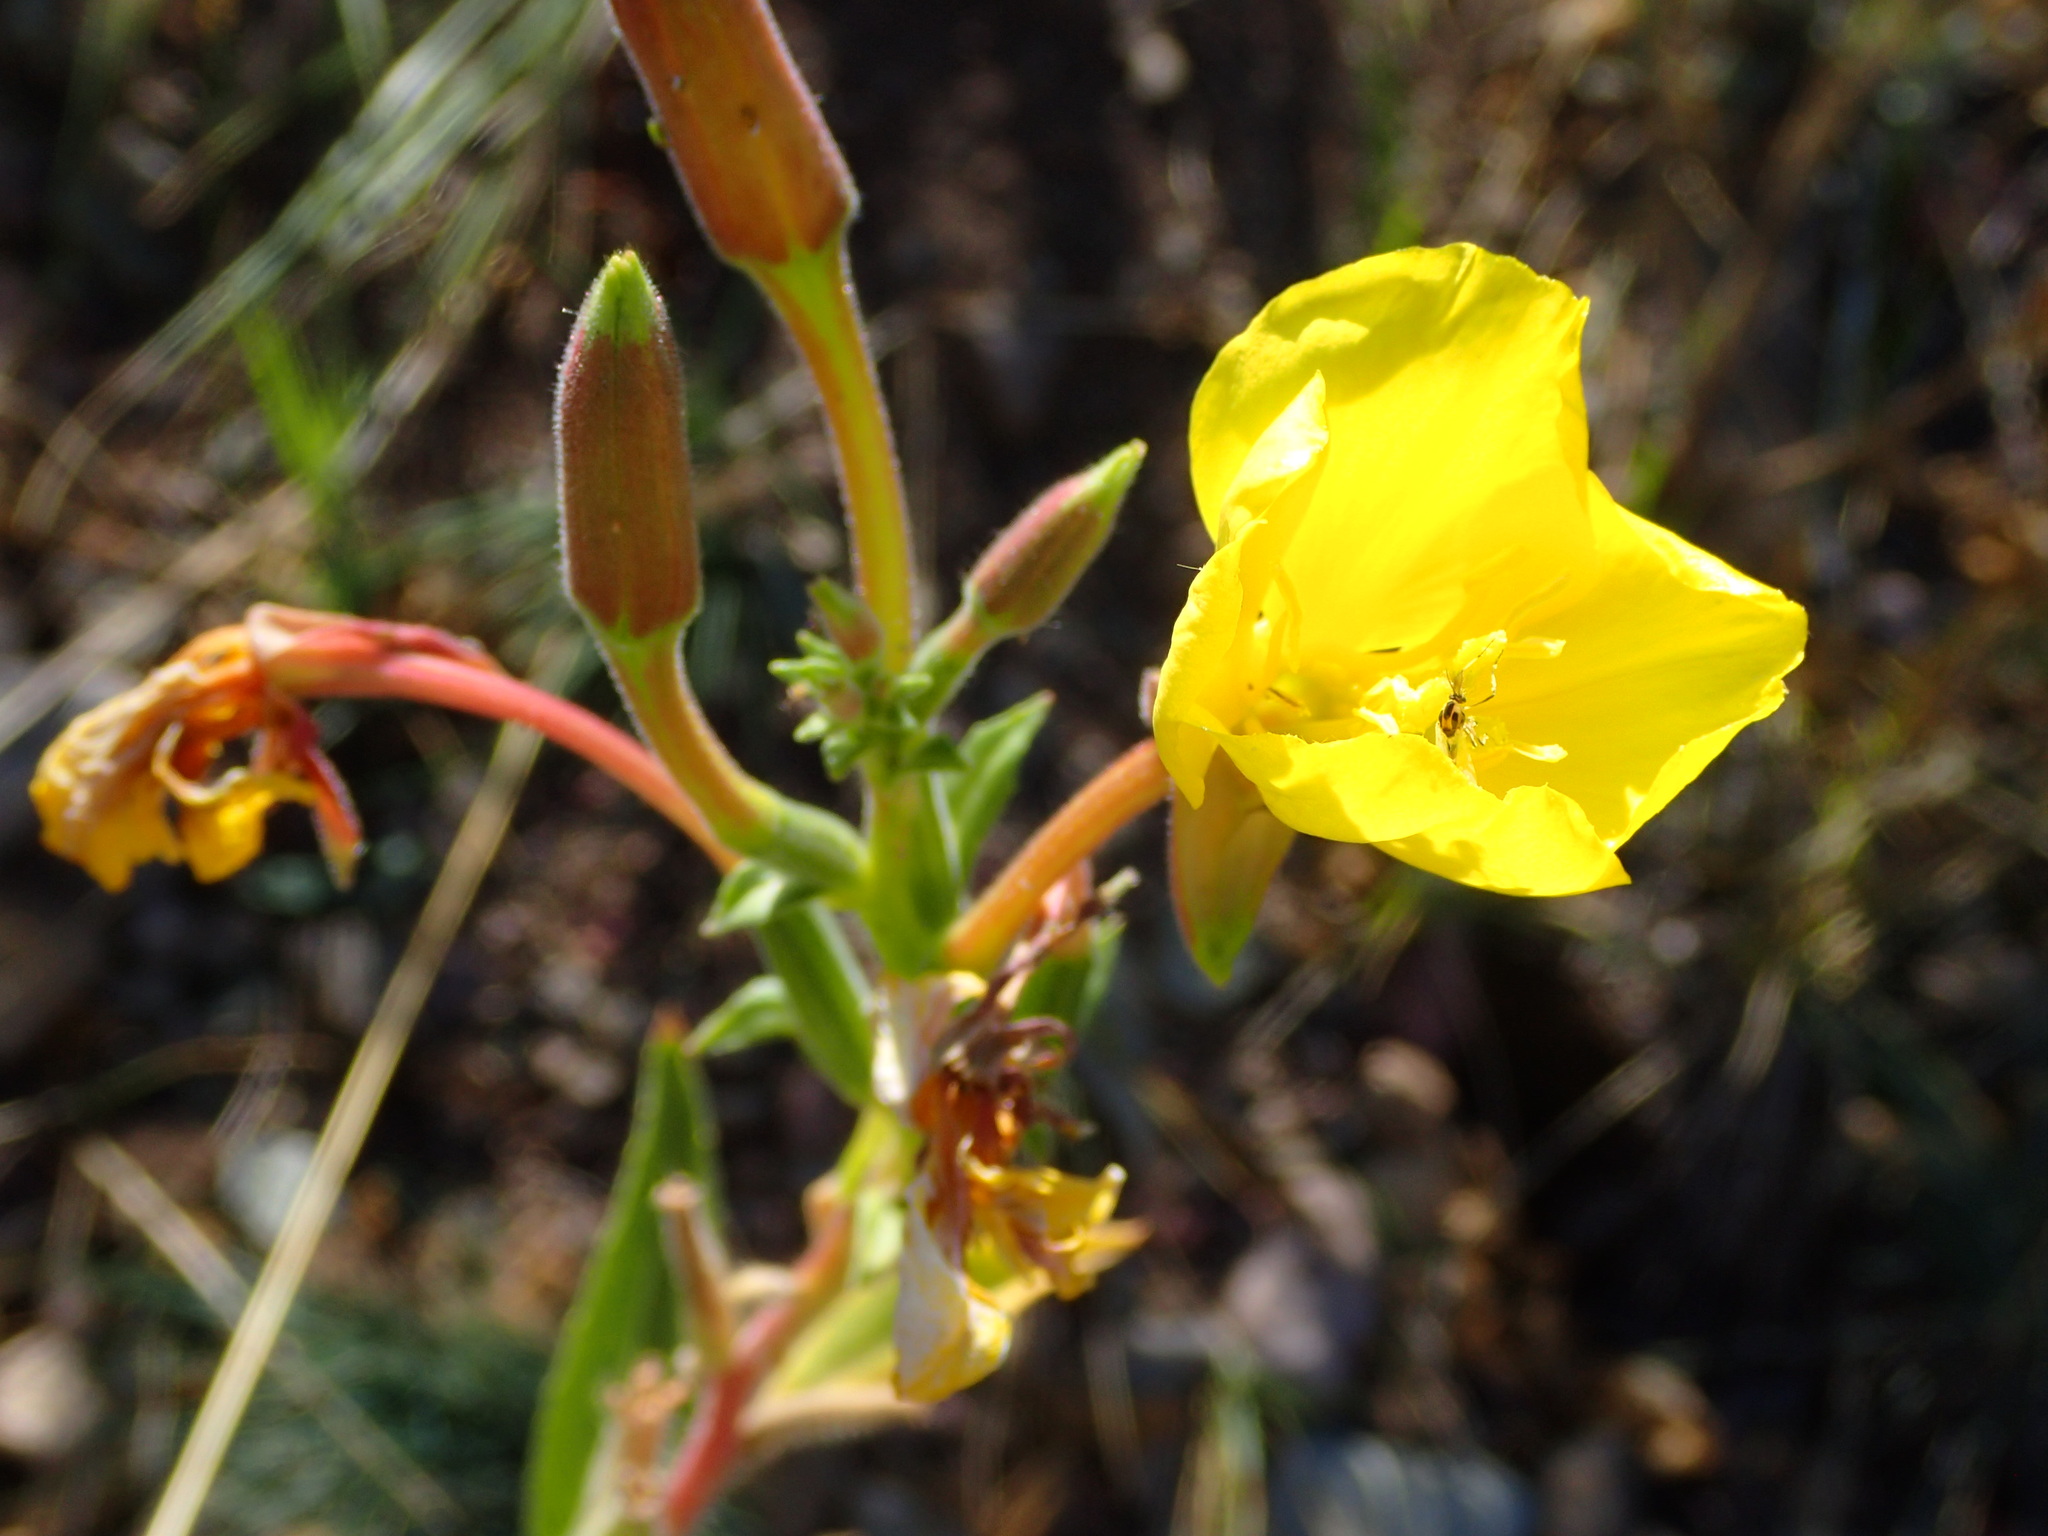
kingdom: Plantae
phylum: Tracheophyta
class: Magnoliopsida
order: Myrtales
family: Onagraceae
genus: Oenothera
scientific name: Oenothera biennis
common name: Common evening-primrose
